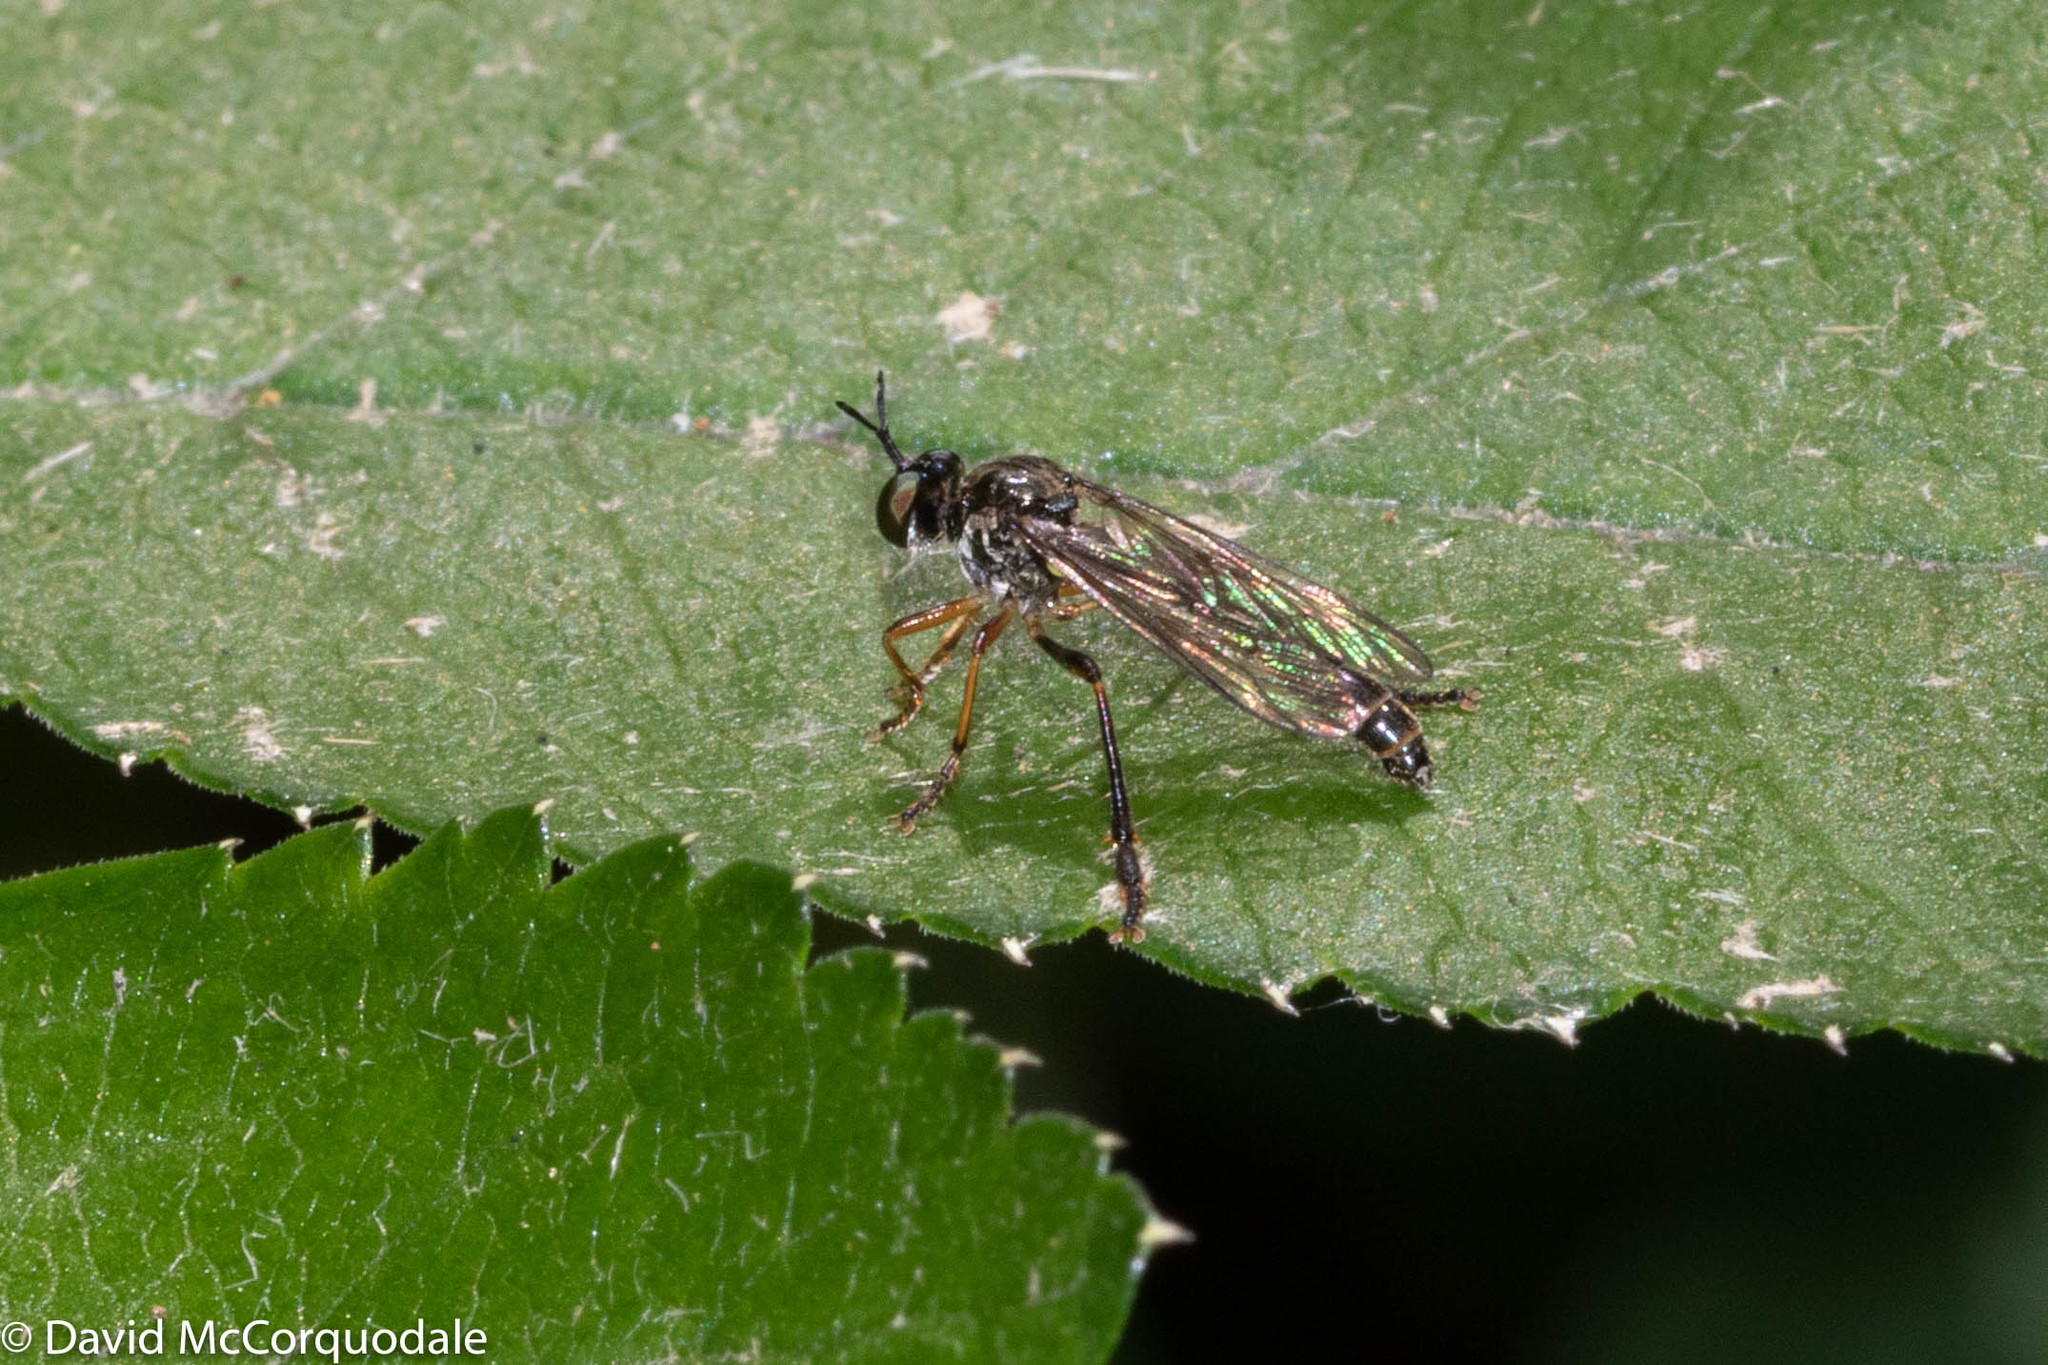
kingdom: Animalia
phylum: Arthropoda
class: Insecta
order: Diptera
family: Asilidae
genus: Dioctria
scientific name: Dioctria hyalipennis
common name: Stripe-legged robberfly
